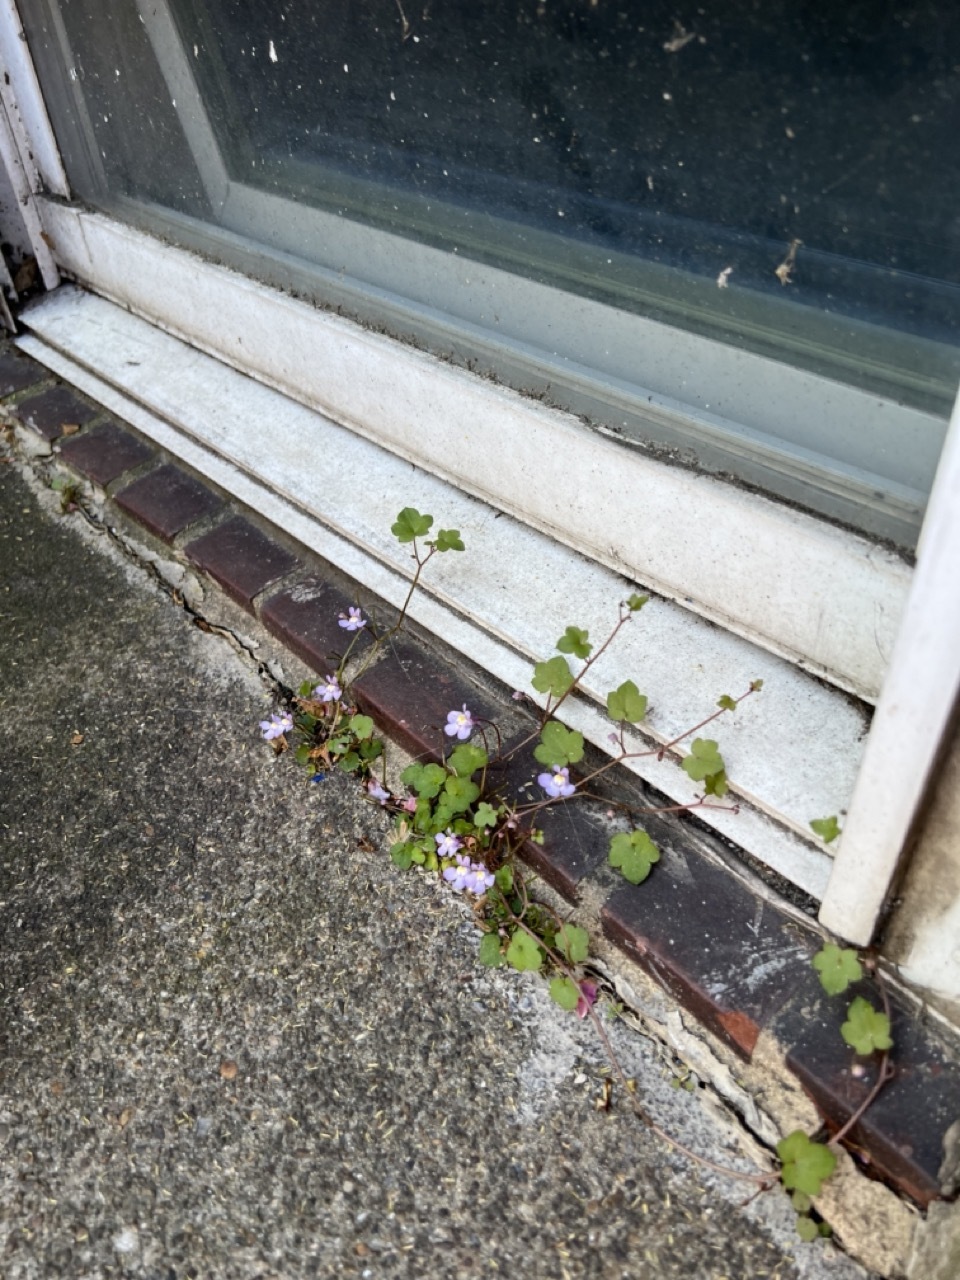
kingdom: Plantae
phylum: Tracheophyta
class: Magnoliopsida
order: Lamiales
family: Plantaginaceae
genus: Cymbalaria
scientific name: Cymbalaria muralis
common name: Ivy-leaved toadflax
